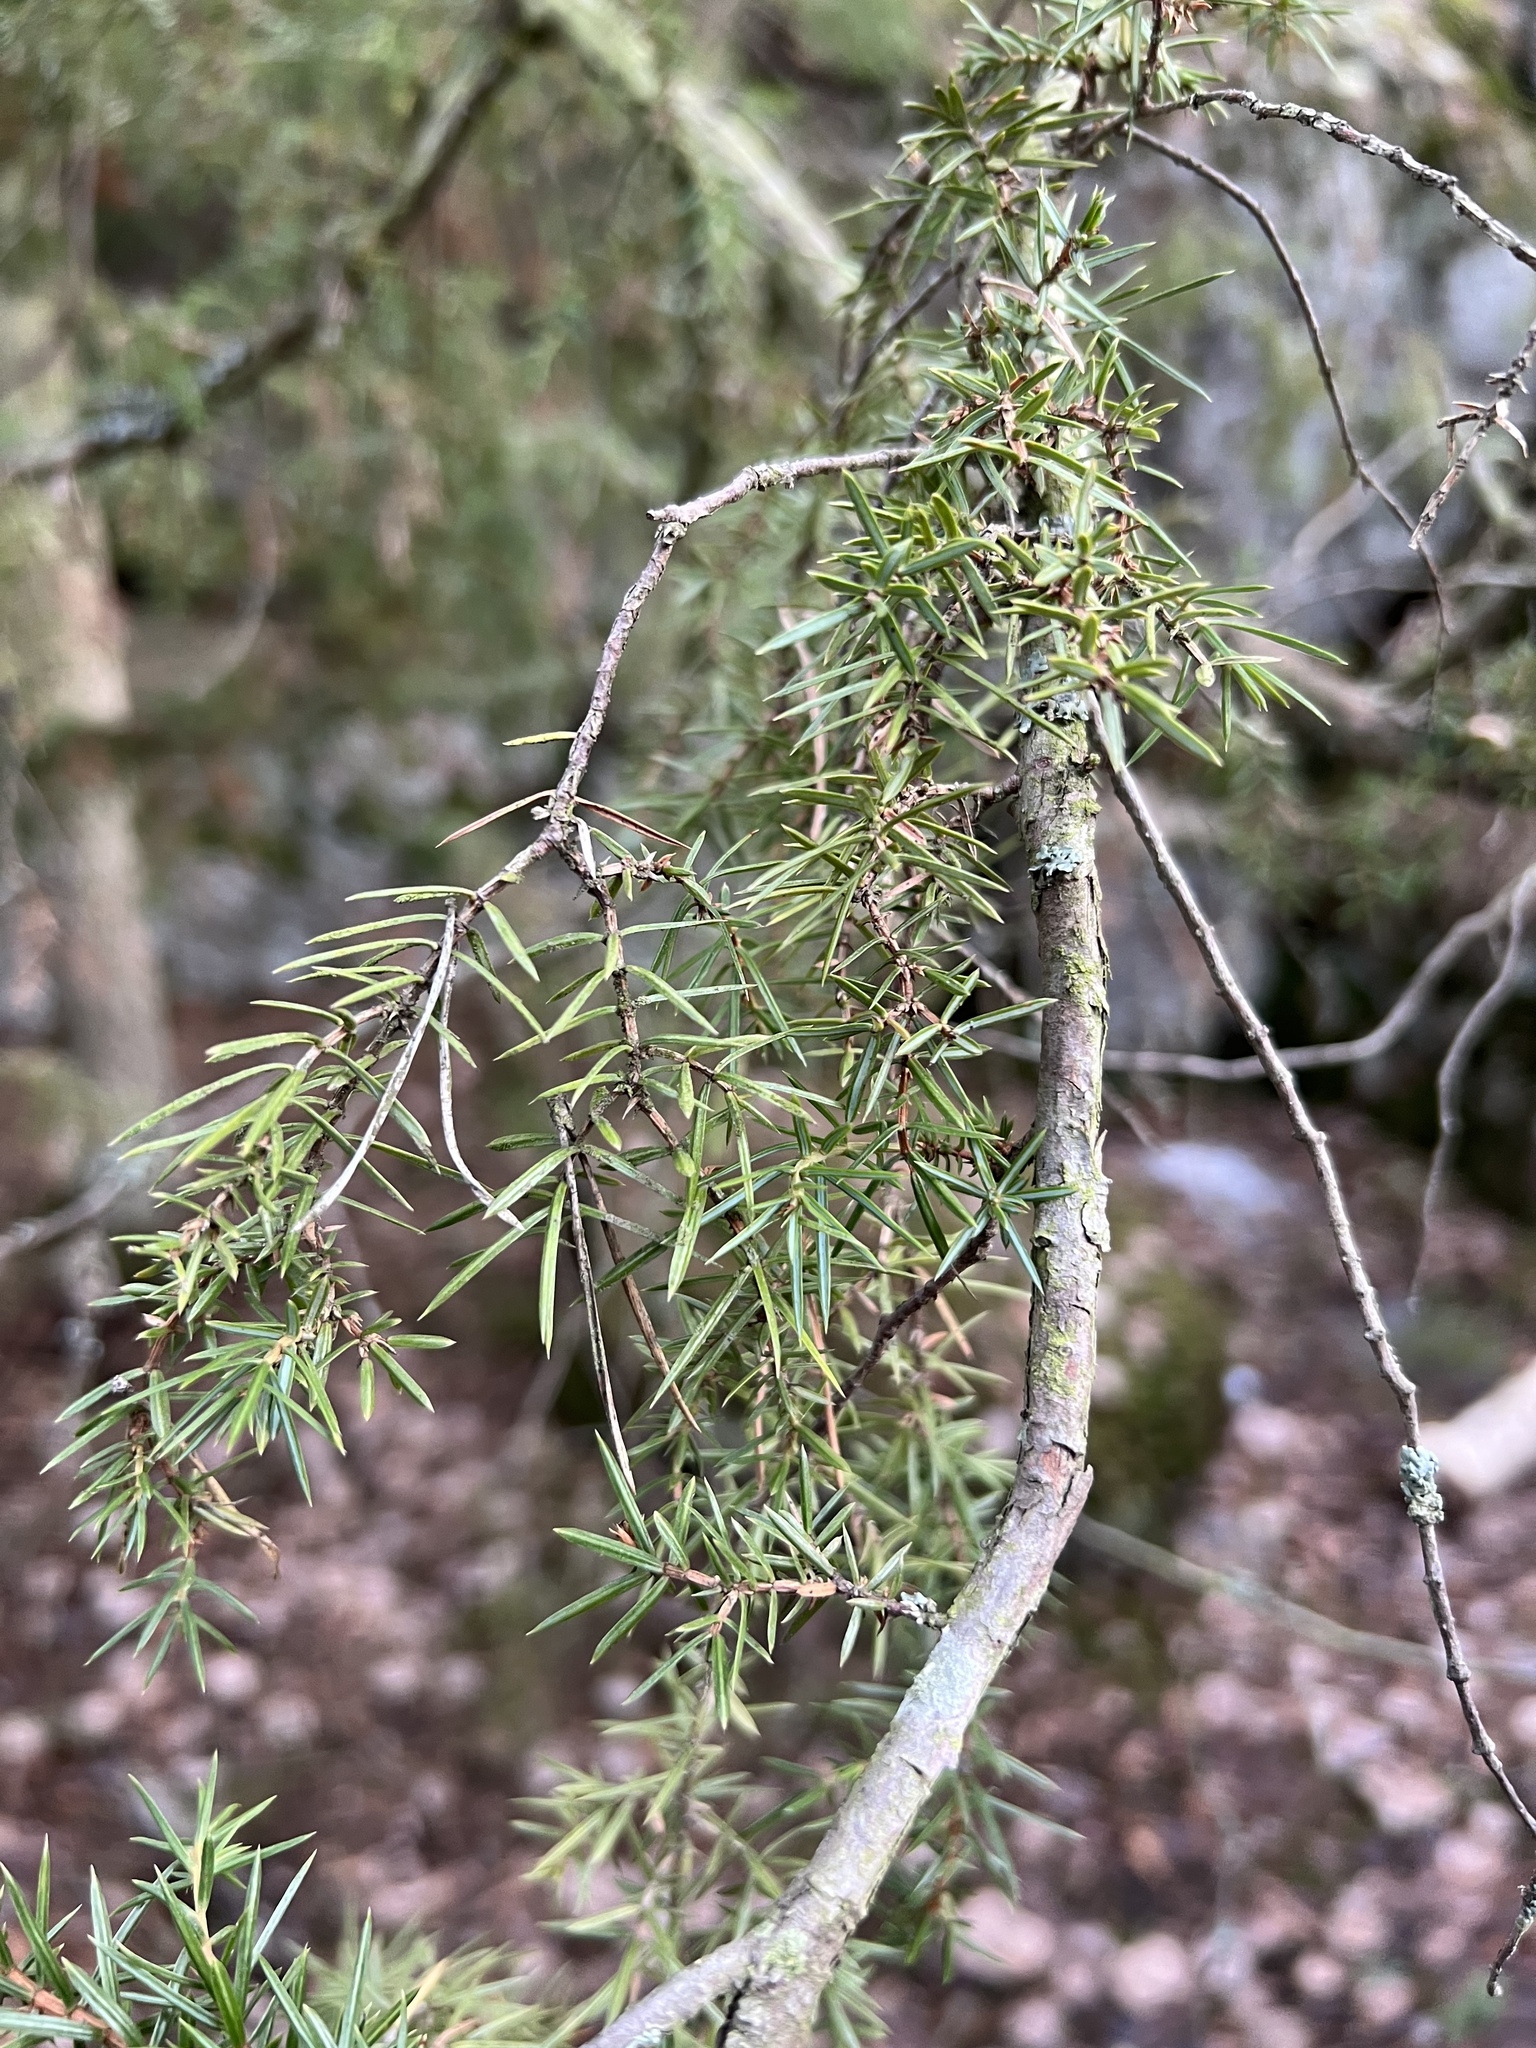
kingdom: Plantae
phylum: Tracheophyta
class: Pinopsida
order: Pinales
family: Cupressaceae
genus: Juniperus
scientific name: Juniperus communis
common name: Common juniper
